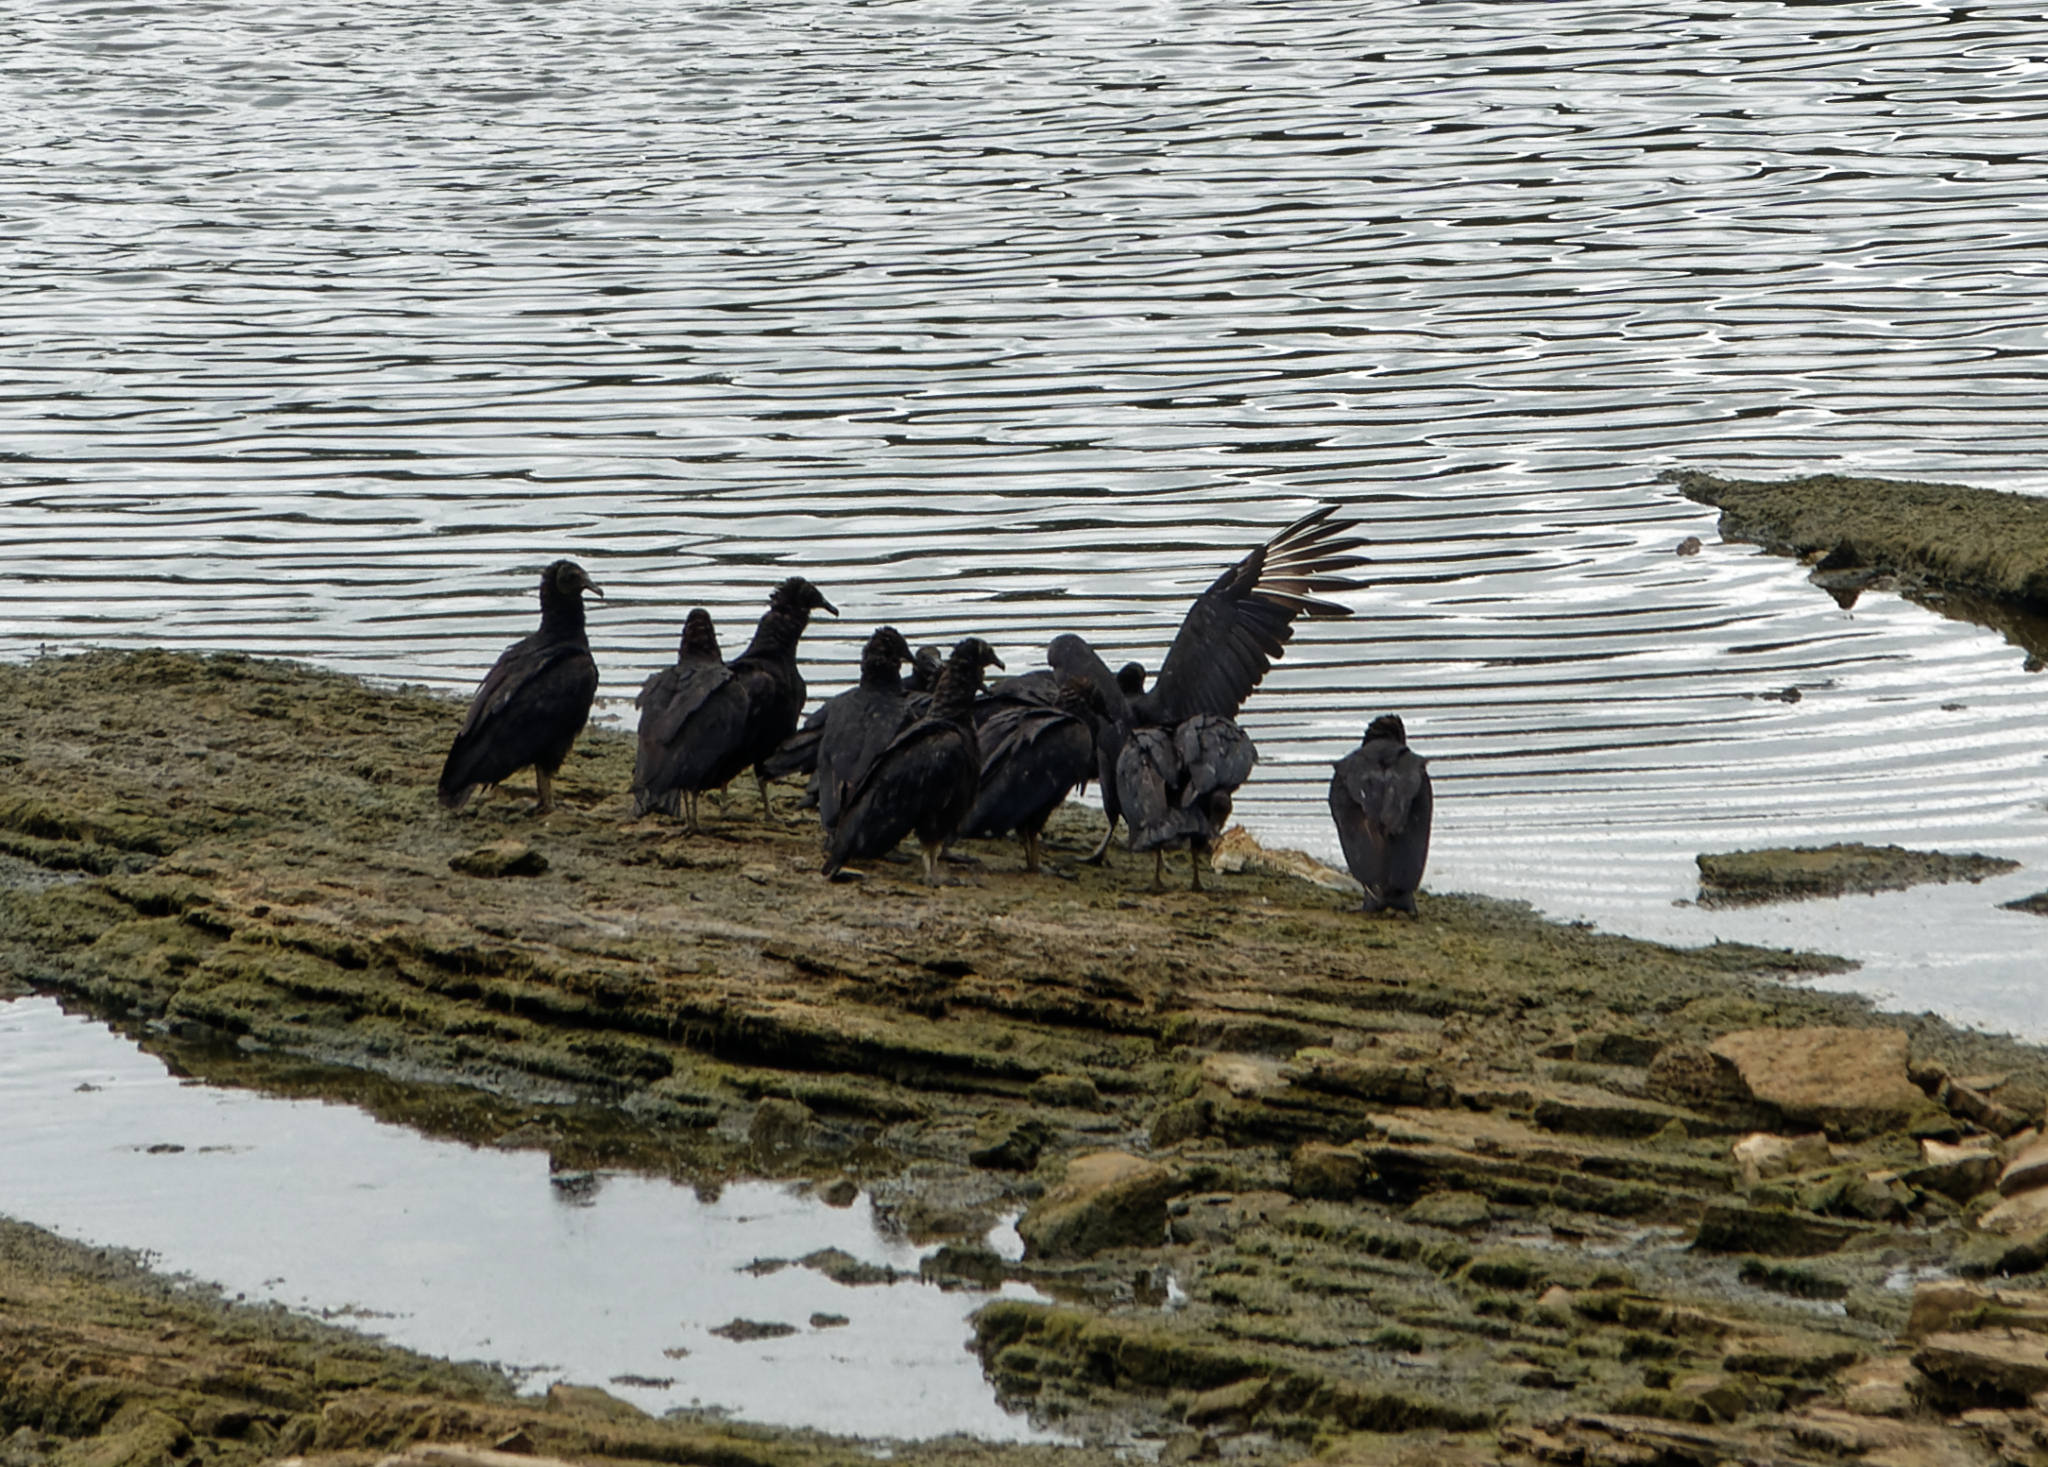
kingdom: Animalia
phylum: Chordata
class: Aves
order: Accipitriformes
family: Cathartidae
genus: Coragyps
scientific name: Coragyps atratus
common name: Black vulture
